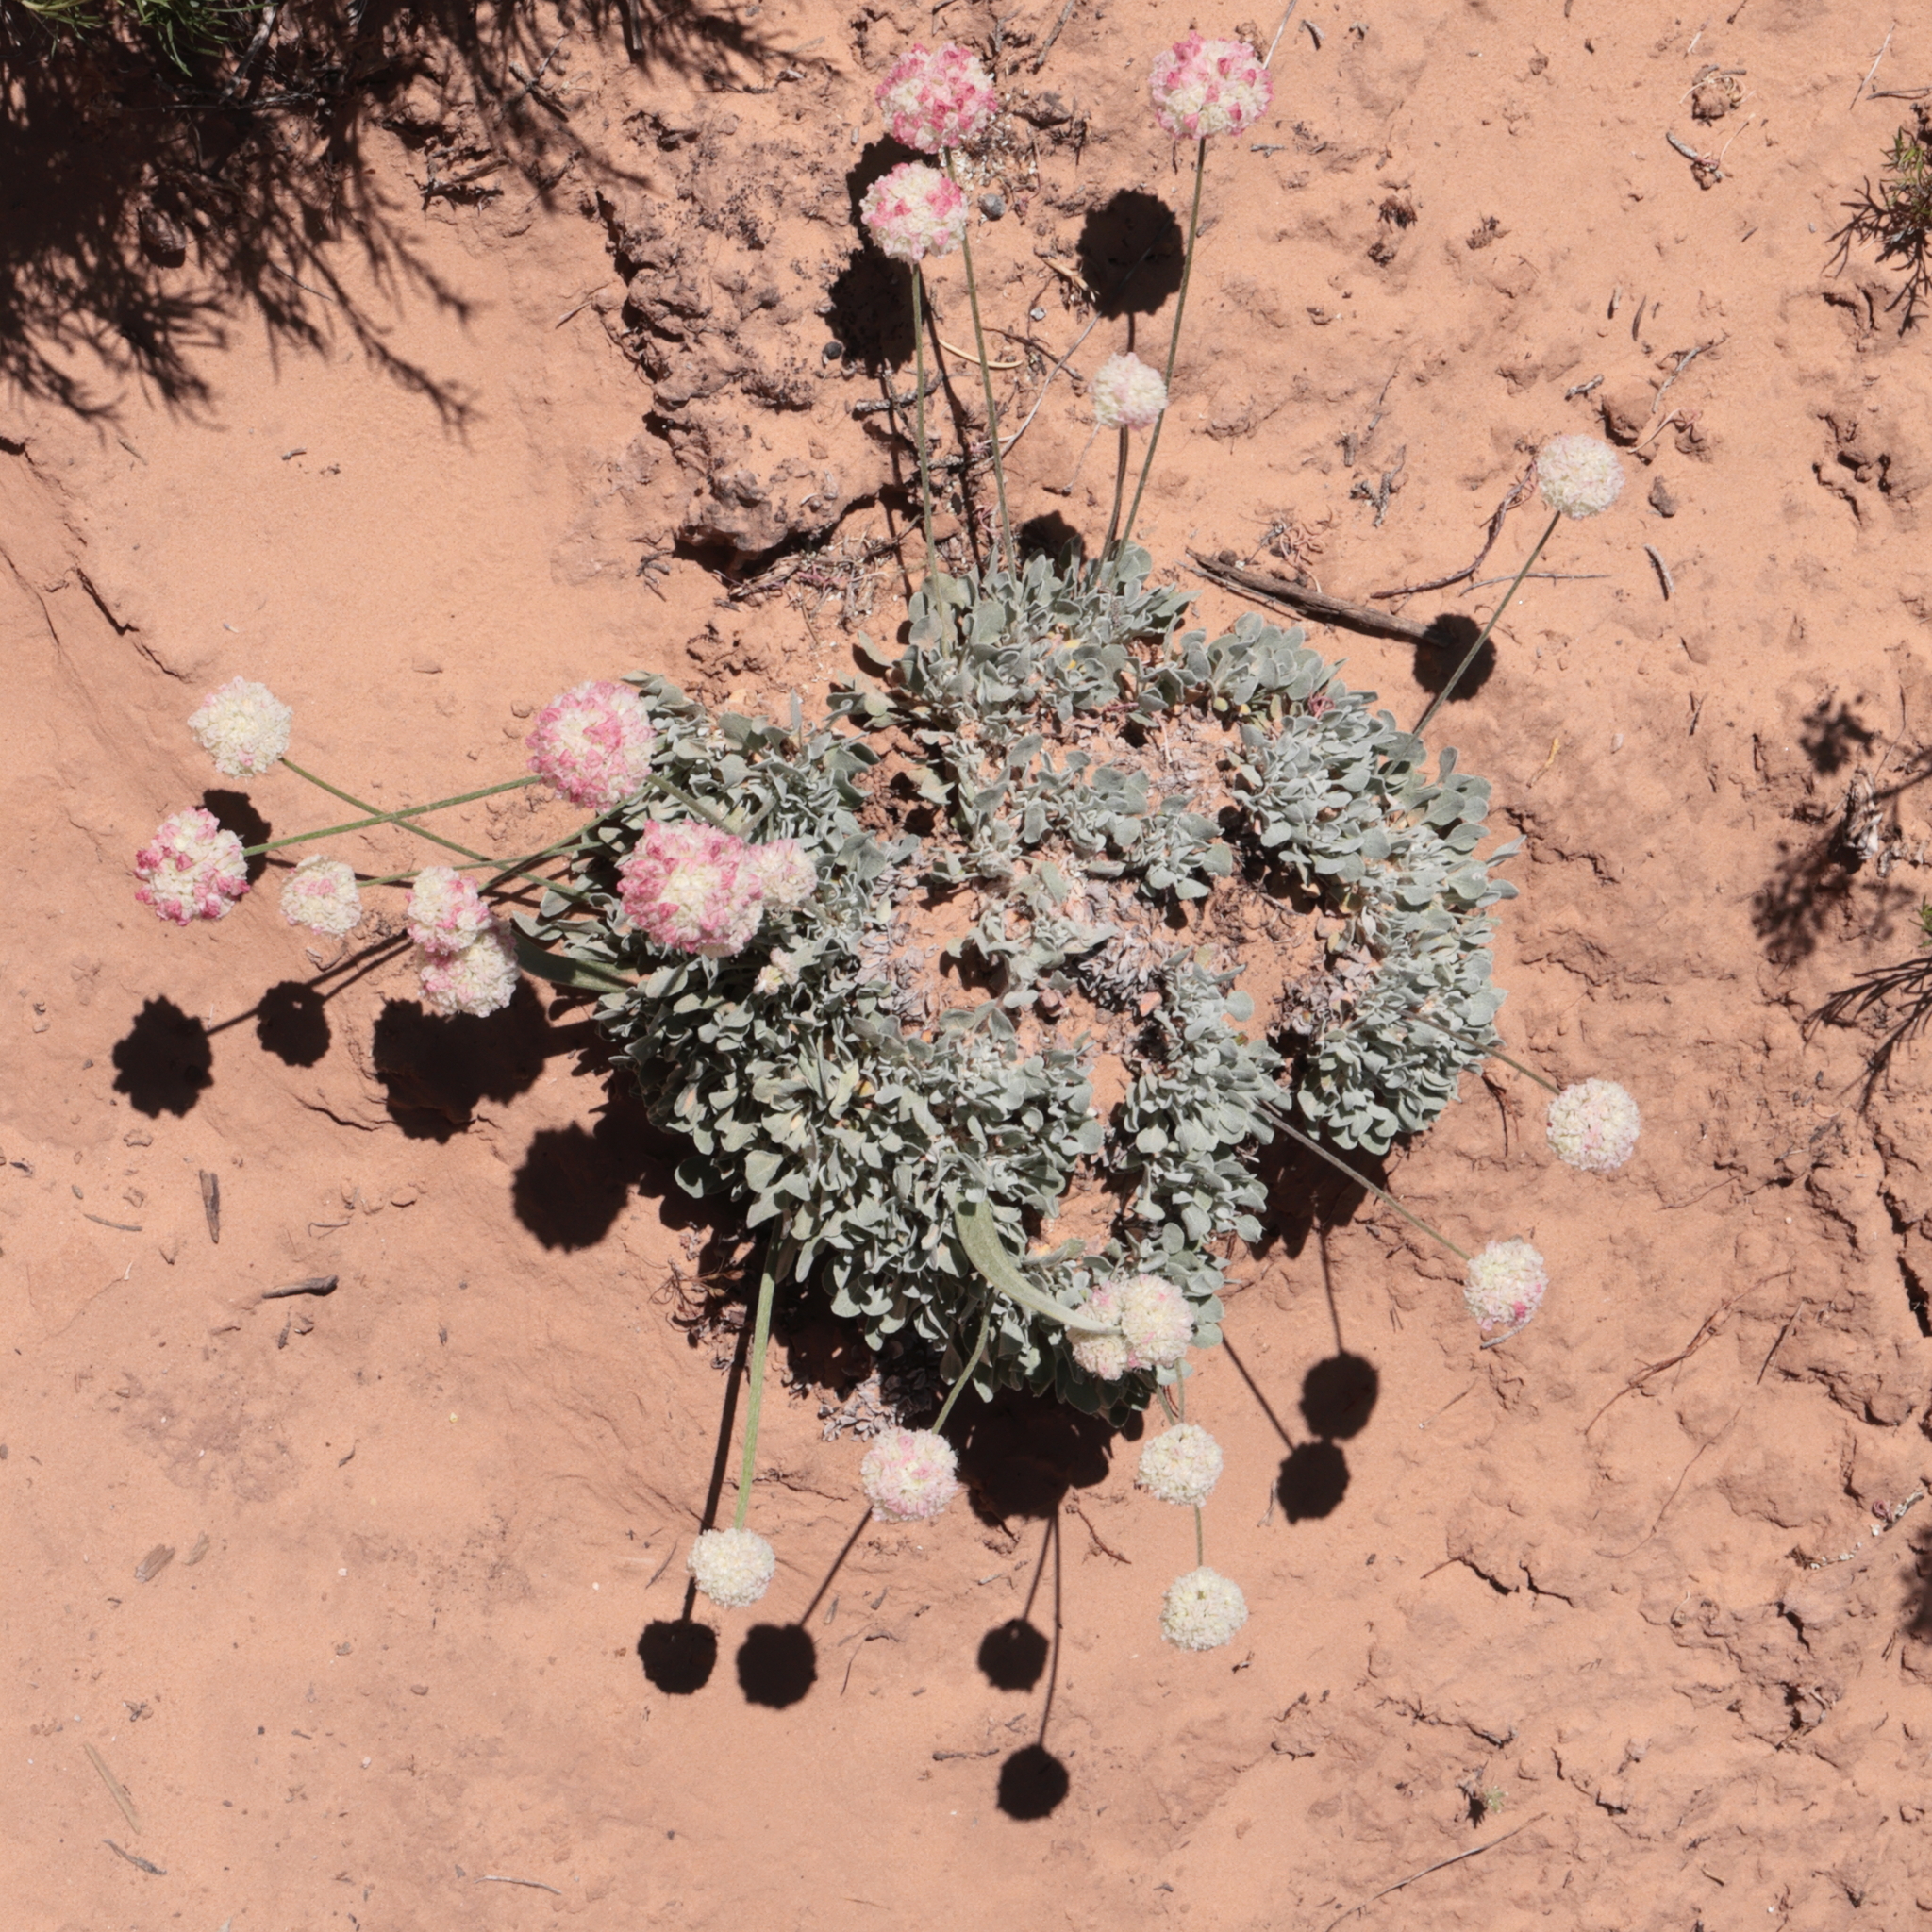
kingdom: Plantae
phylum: Tracheophyta
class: Magnoliopsida
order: Caryophyllales
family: Polygonaceae
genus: Eriogonum
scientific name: Eriogonum ovalifolium
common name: Cushion buckwheat
